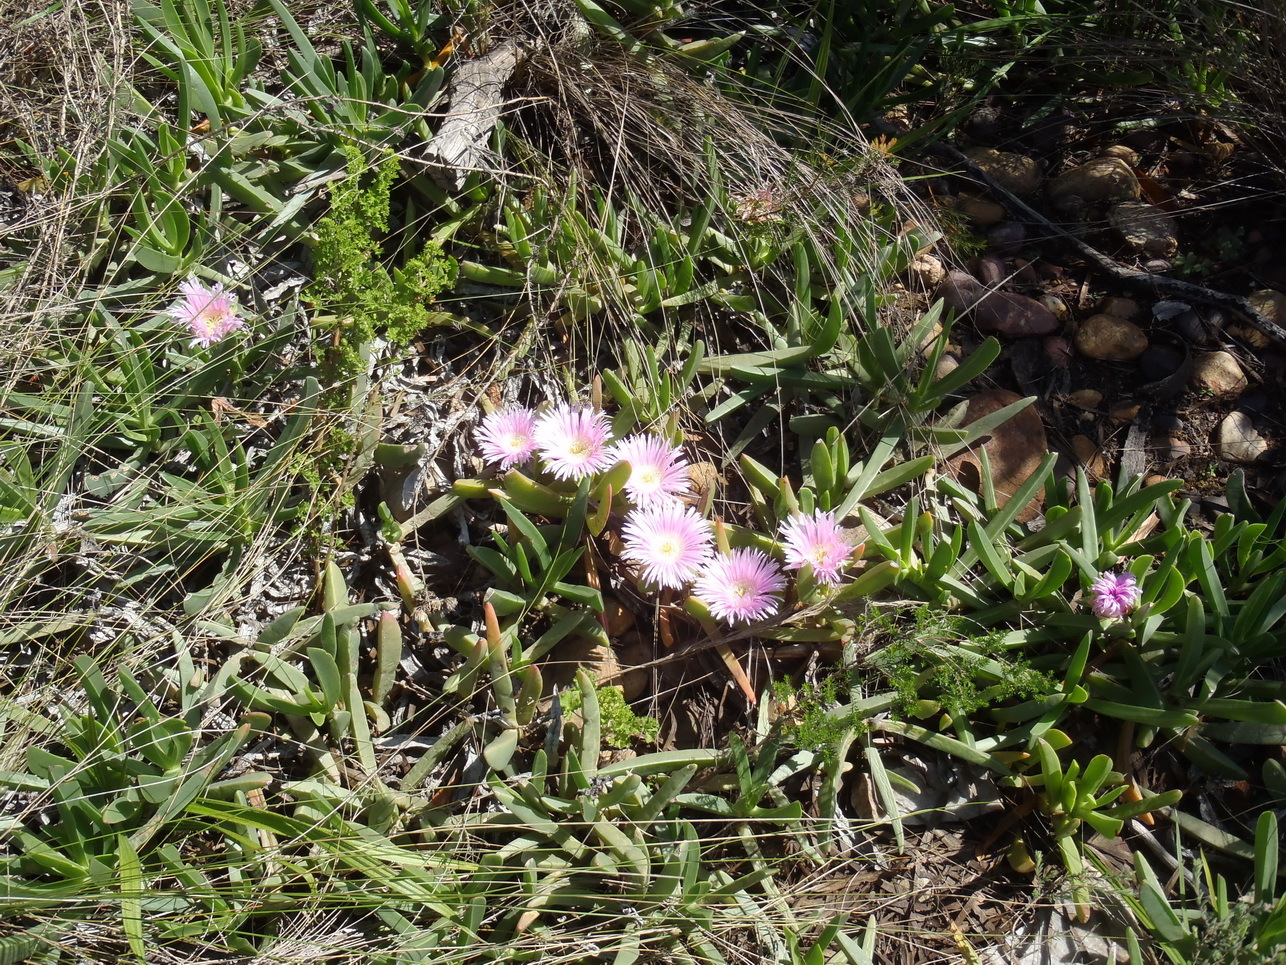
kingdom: Plantae
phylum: Tracheophyta
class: Magnoliopsida
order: Caryophyllales
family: Aizoaceae
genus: Carpobrotus
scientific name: Carpobrotus mellei
